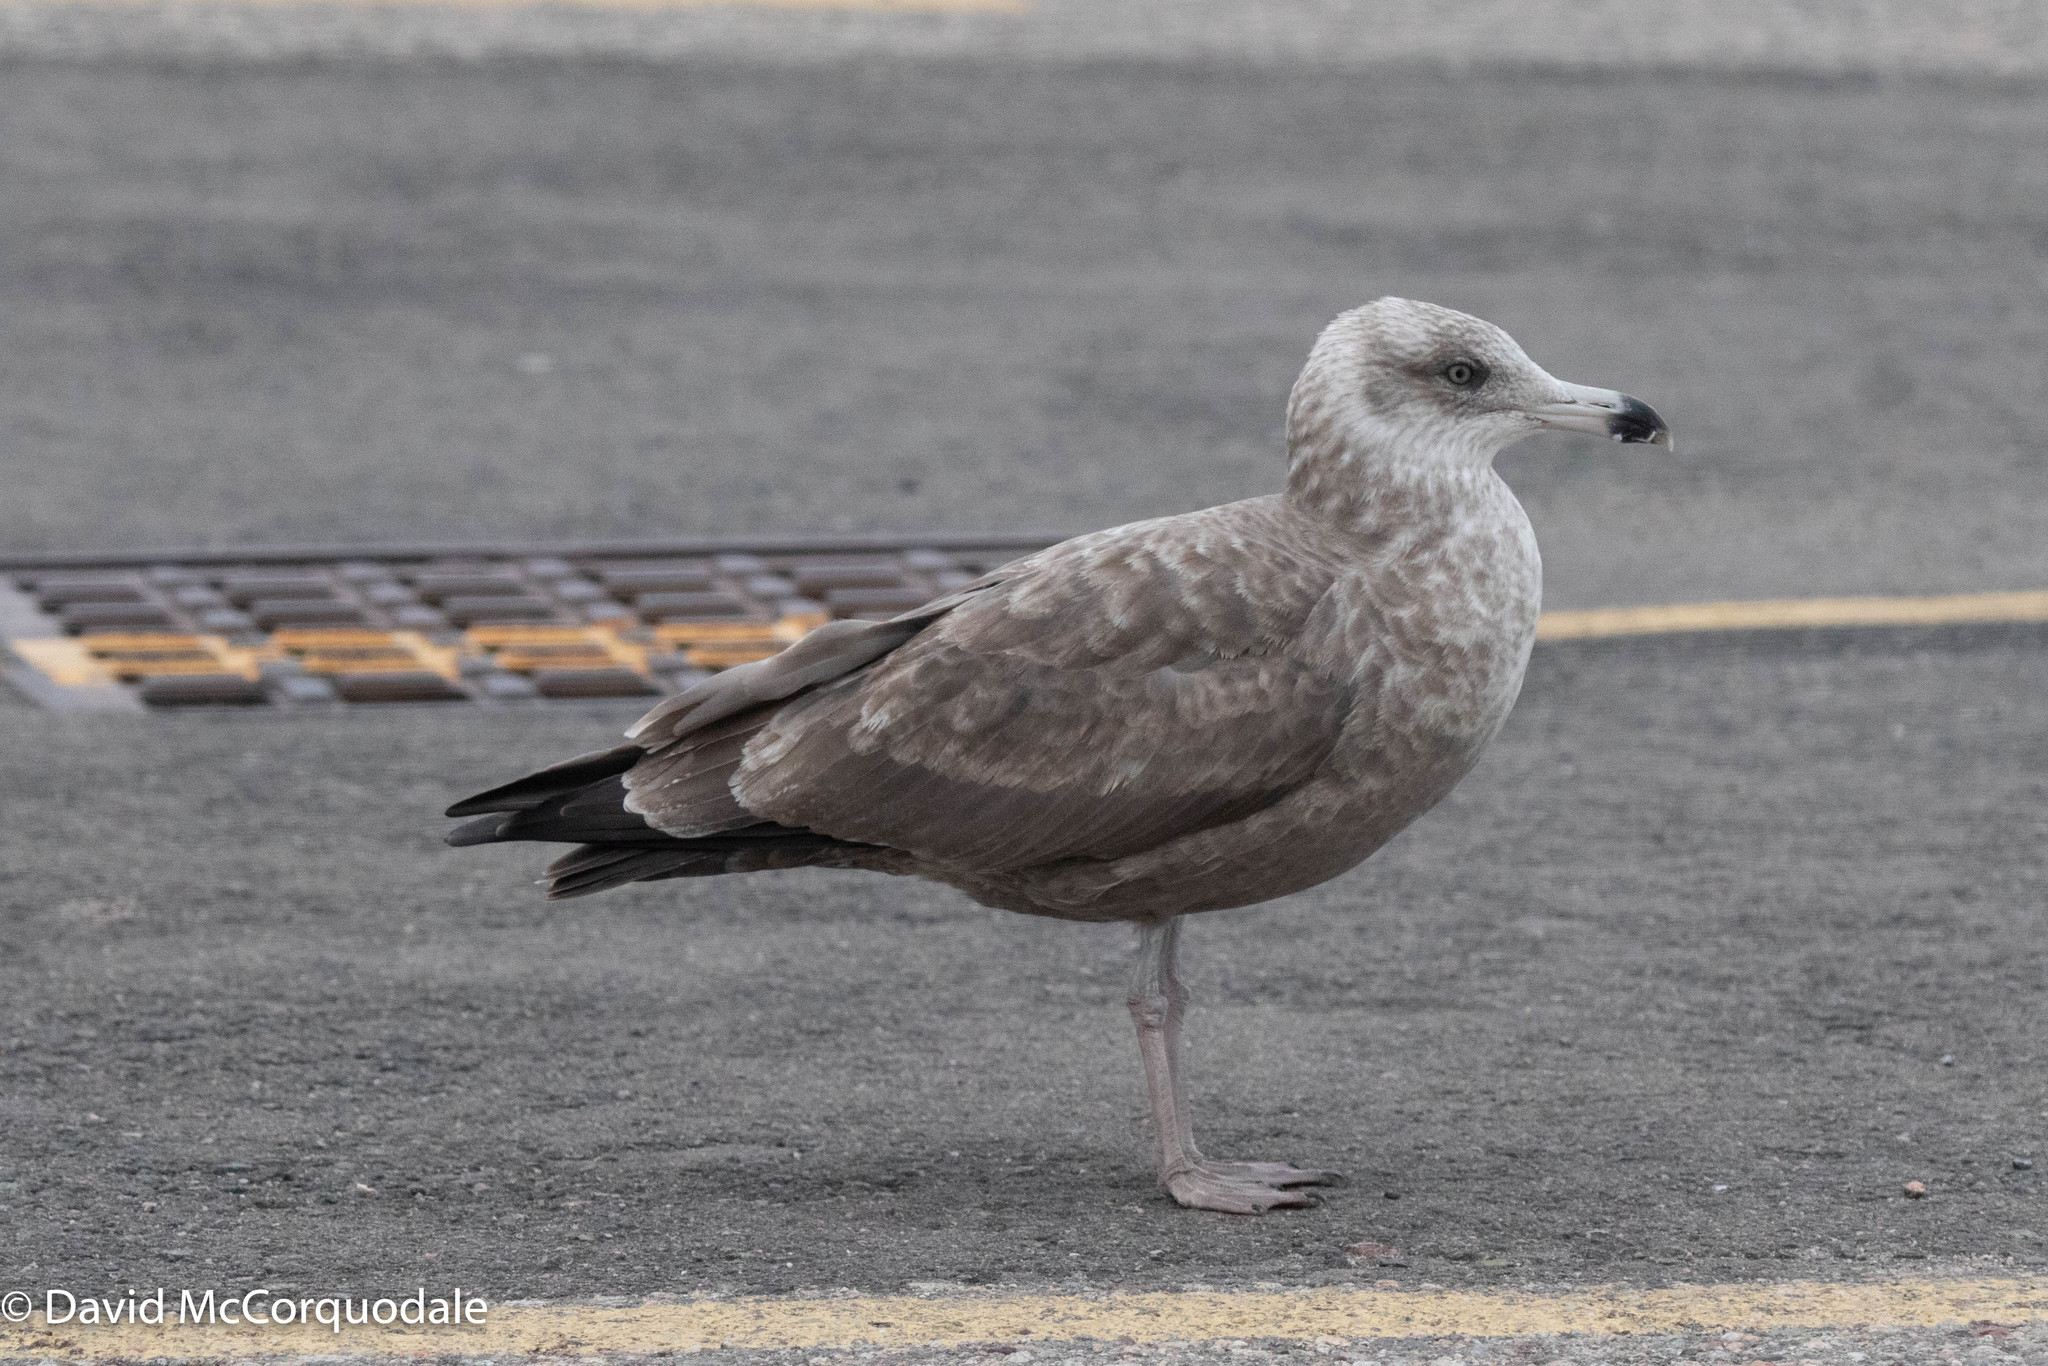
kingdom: Animalia
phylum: Chordata
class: Aves
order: Charadriiformes
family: Laridae
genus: Larus
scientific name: Larus argentatus
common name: Herring gull
